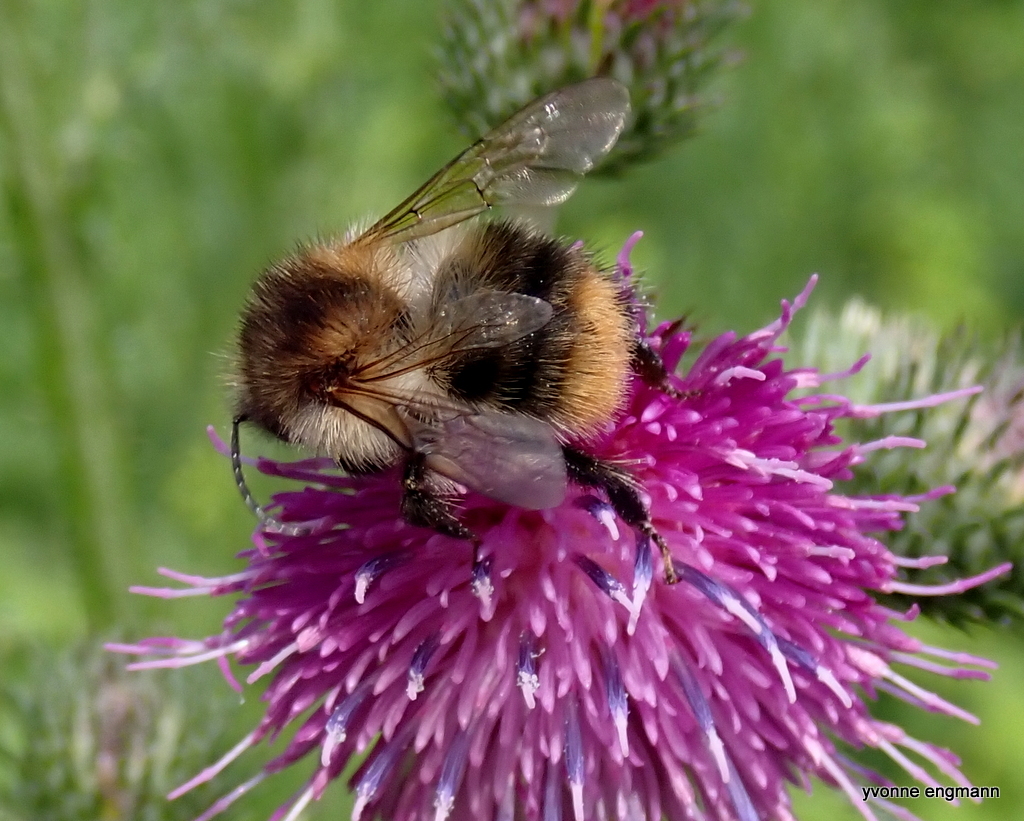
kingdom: Animalia
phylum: Arthropoda
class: Insecta
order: Hymenoptera
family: Apidae
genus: Bombus
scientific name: Bombus pascuorum
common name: Common carder bee
